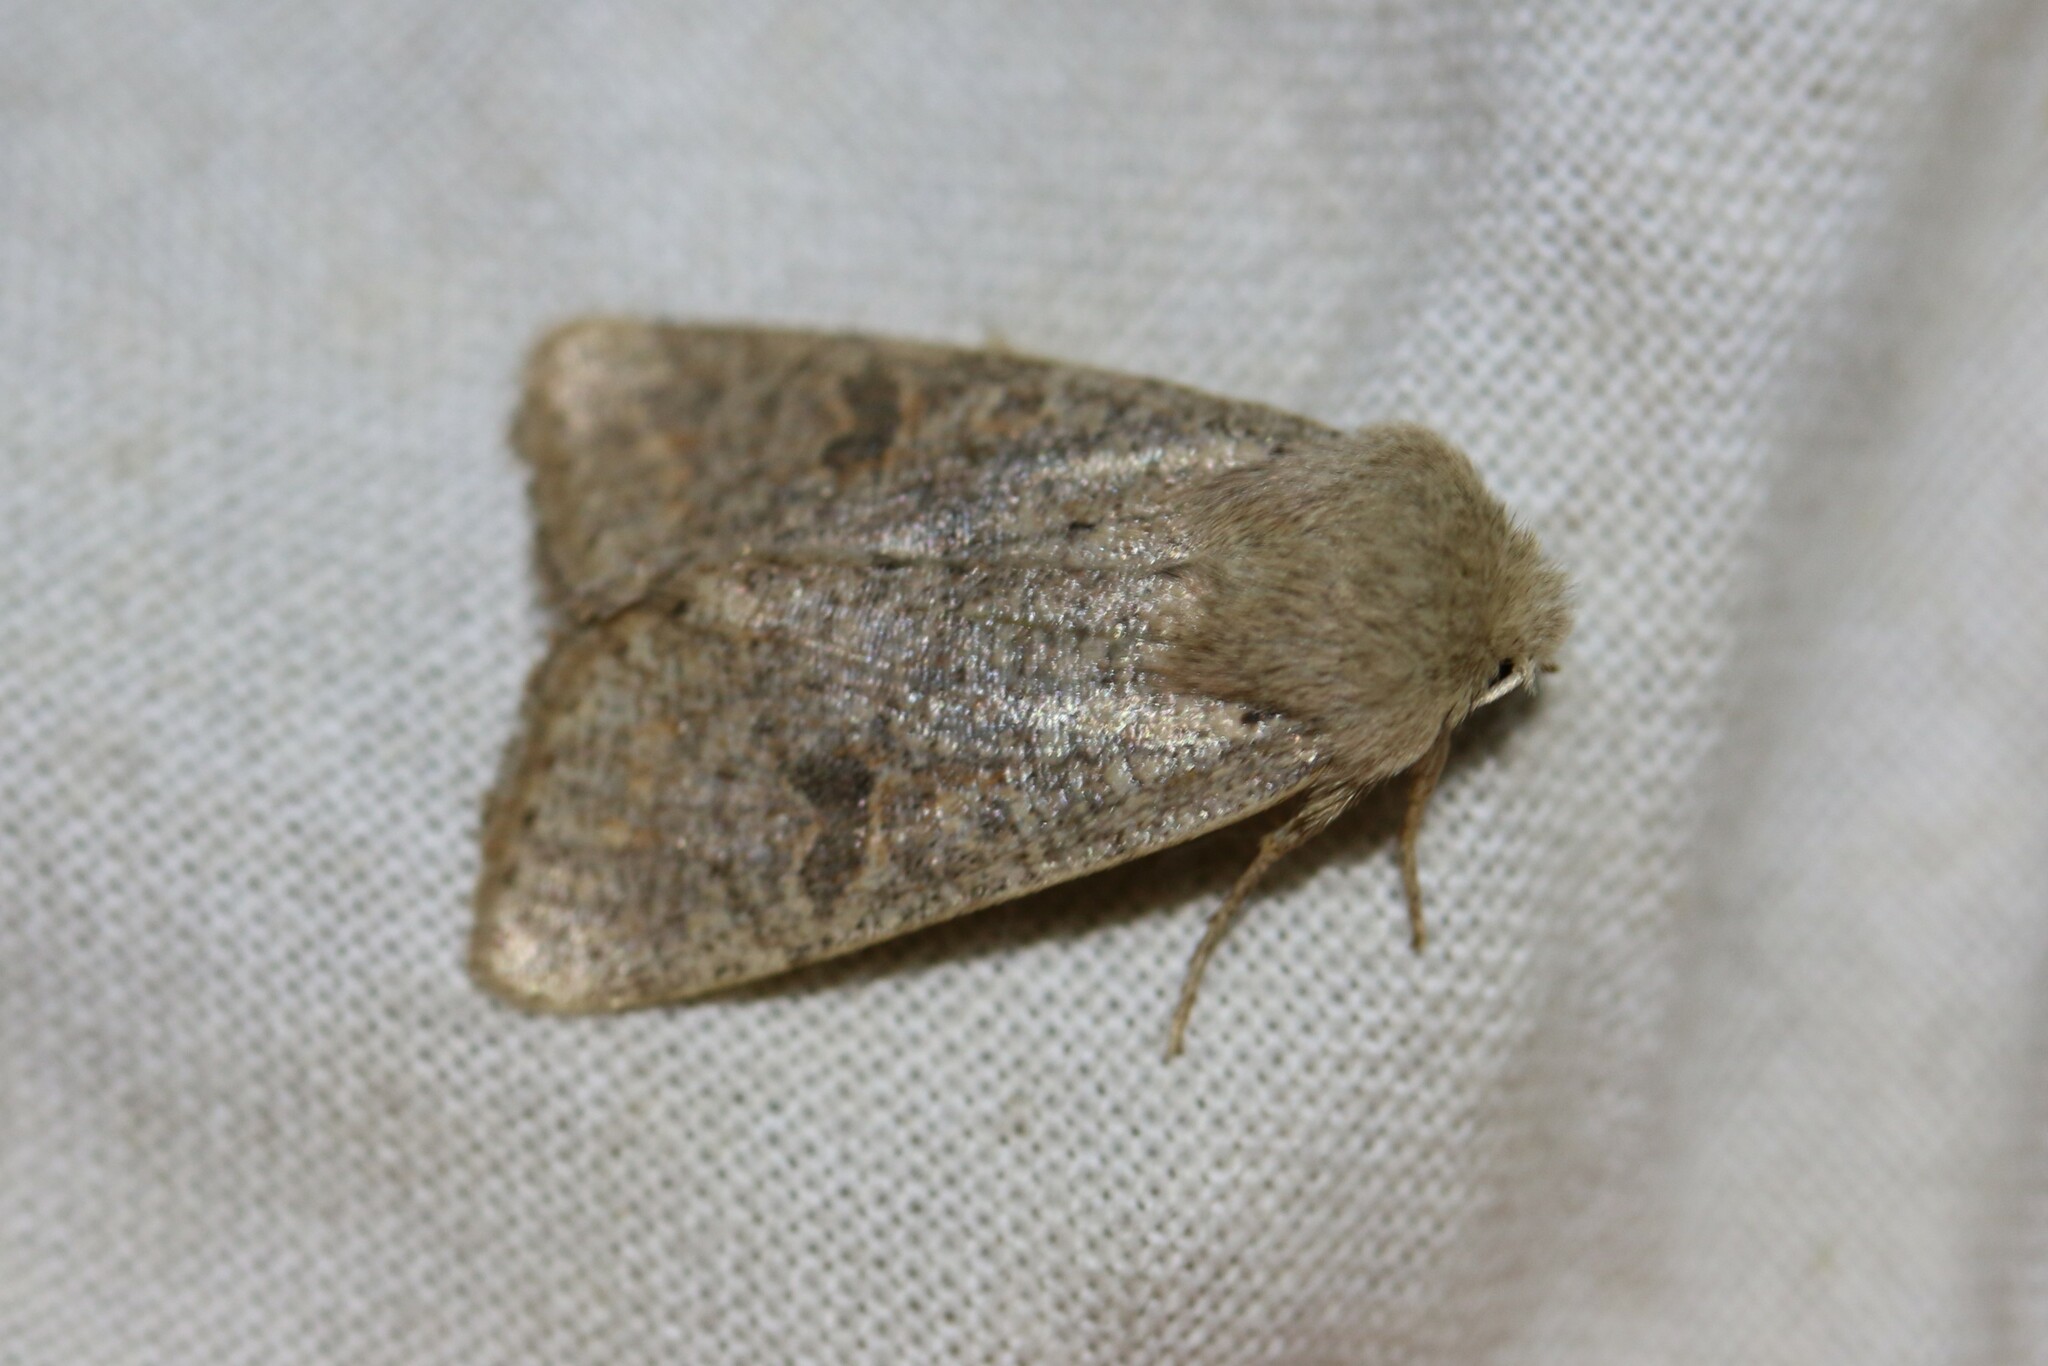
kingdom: Animalia
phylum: Arthropoda
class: Insecta
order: Lepidoptera
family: Noctuidae
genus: Orthosia
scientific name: Orthosia cruda
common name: Small quaker
